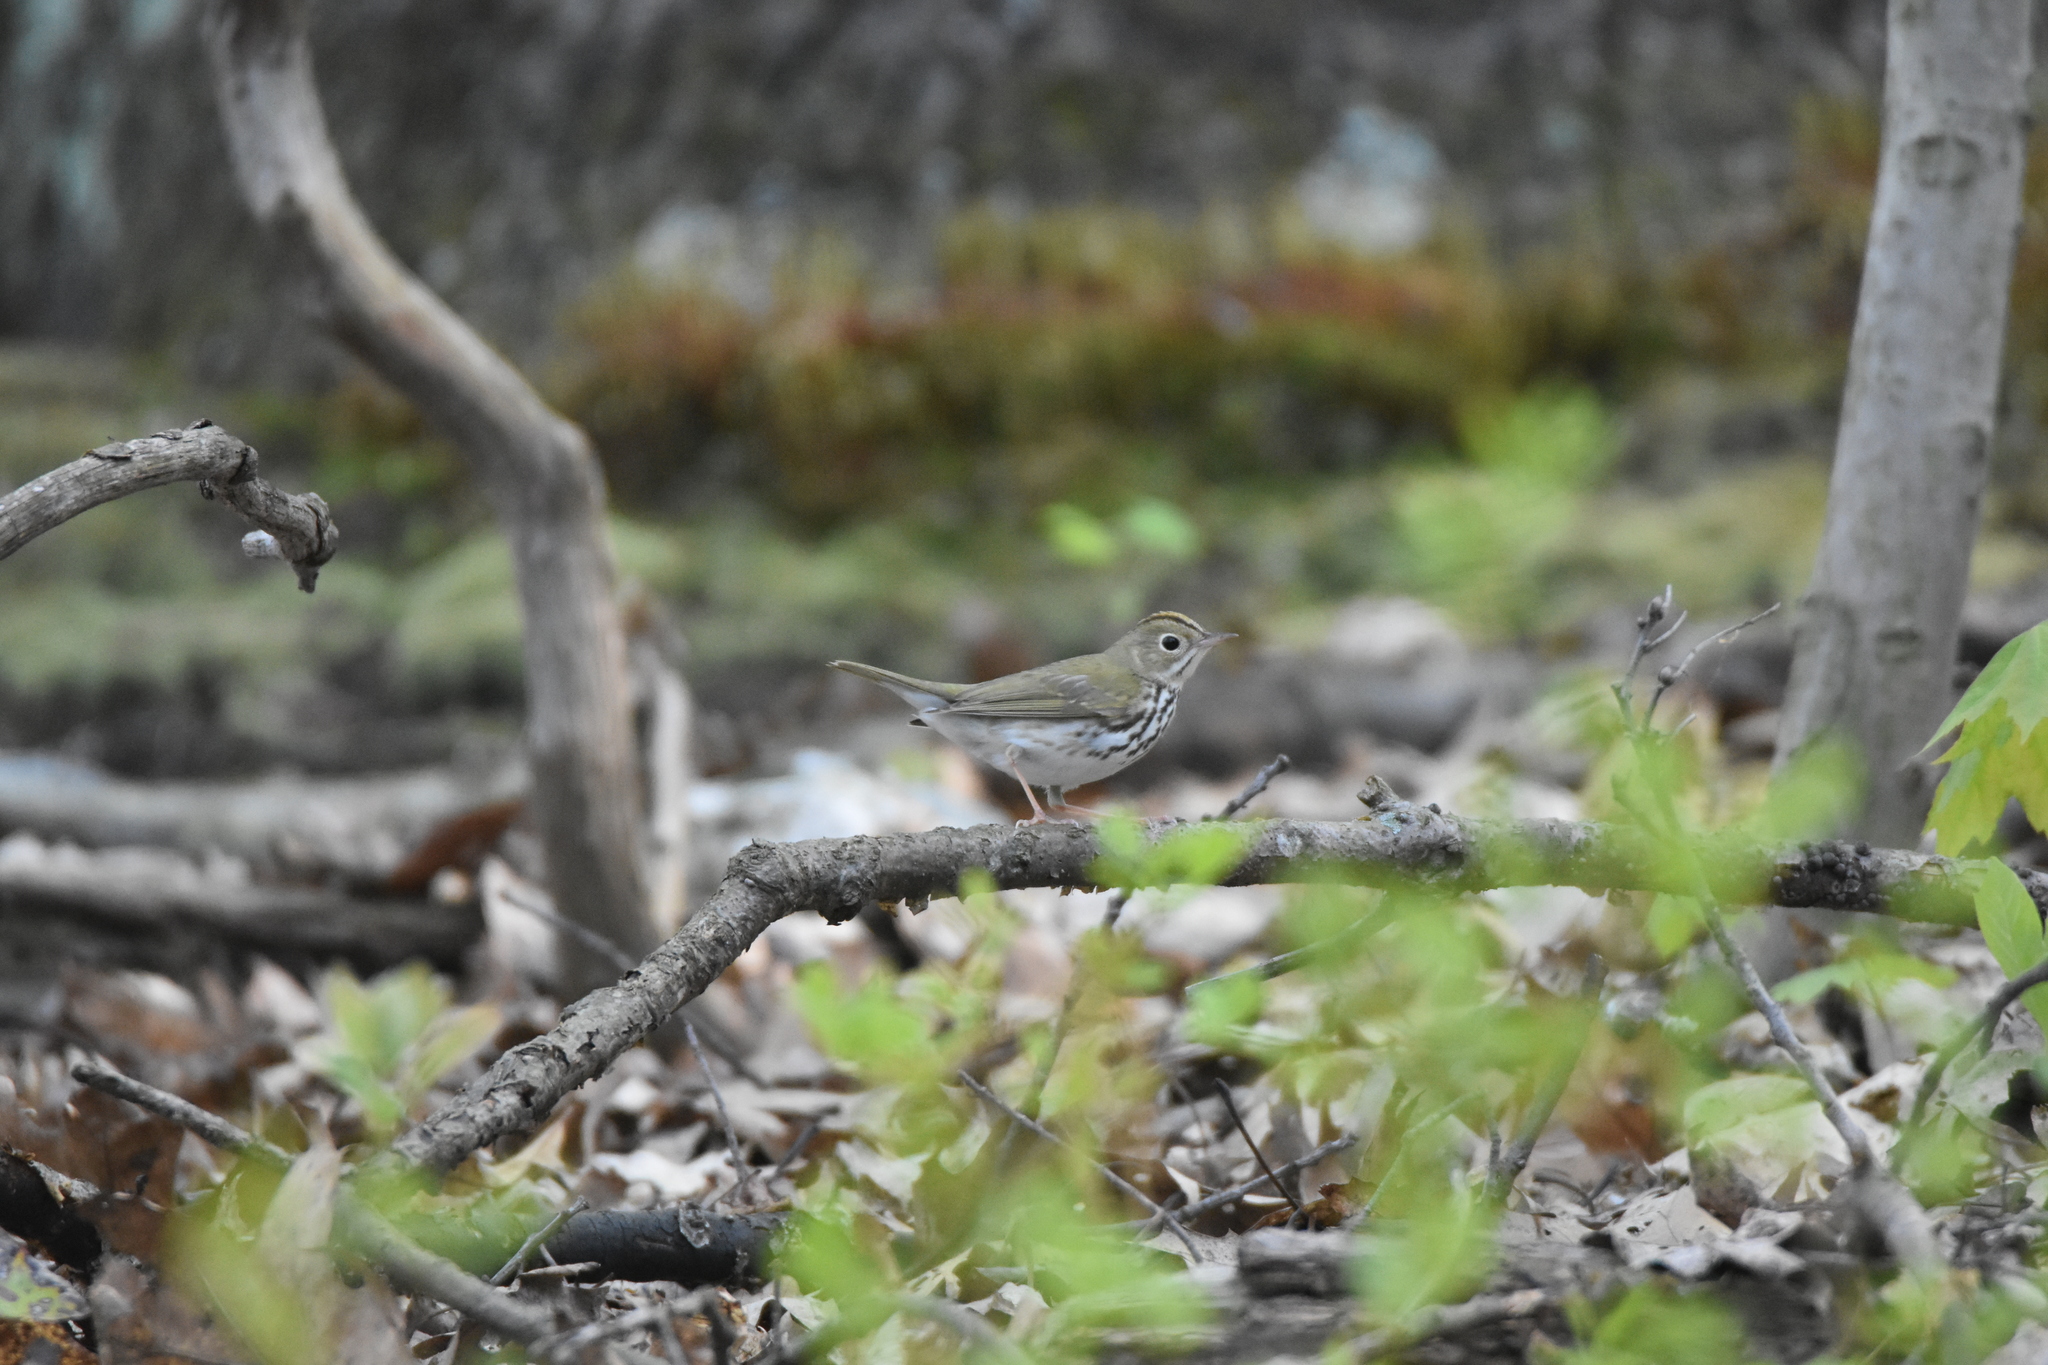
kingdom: Animalia
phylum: Chordata
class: Aves
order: Passeriformes
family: Parulidae
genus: Seiurus
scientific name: Seiurus aurocapilla
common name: Ovenbird
